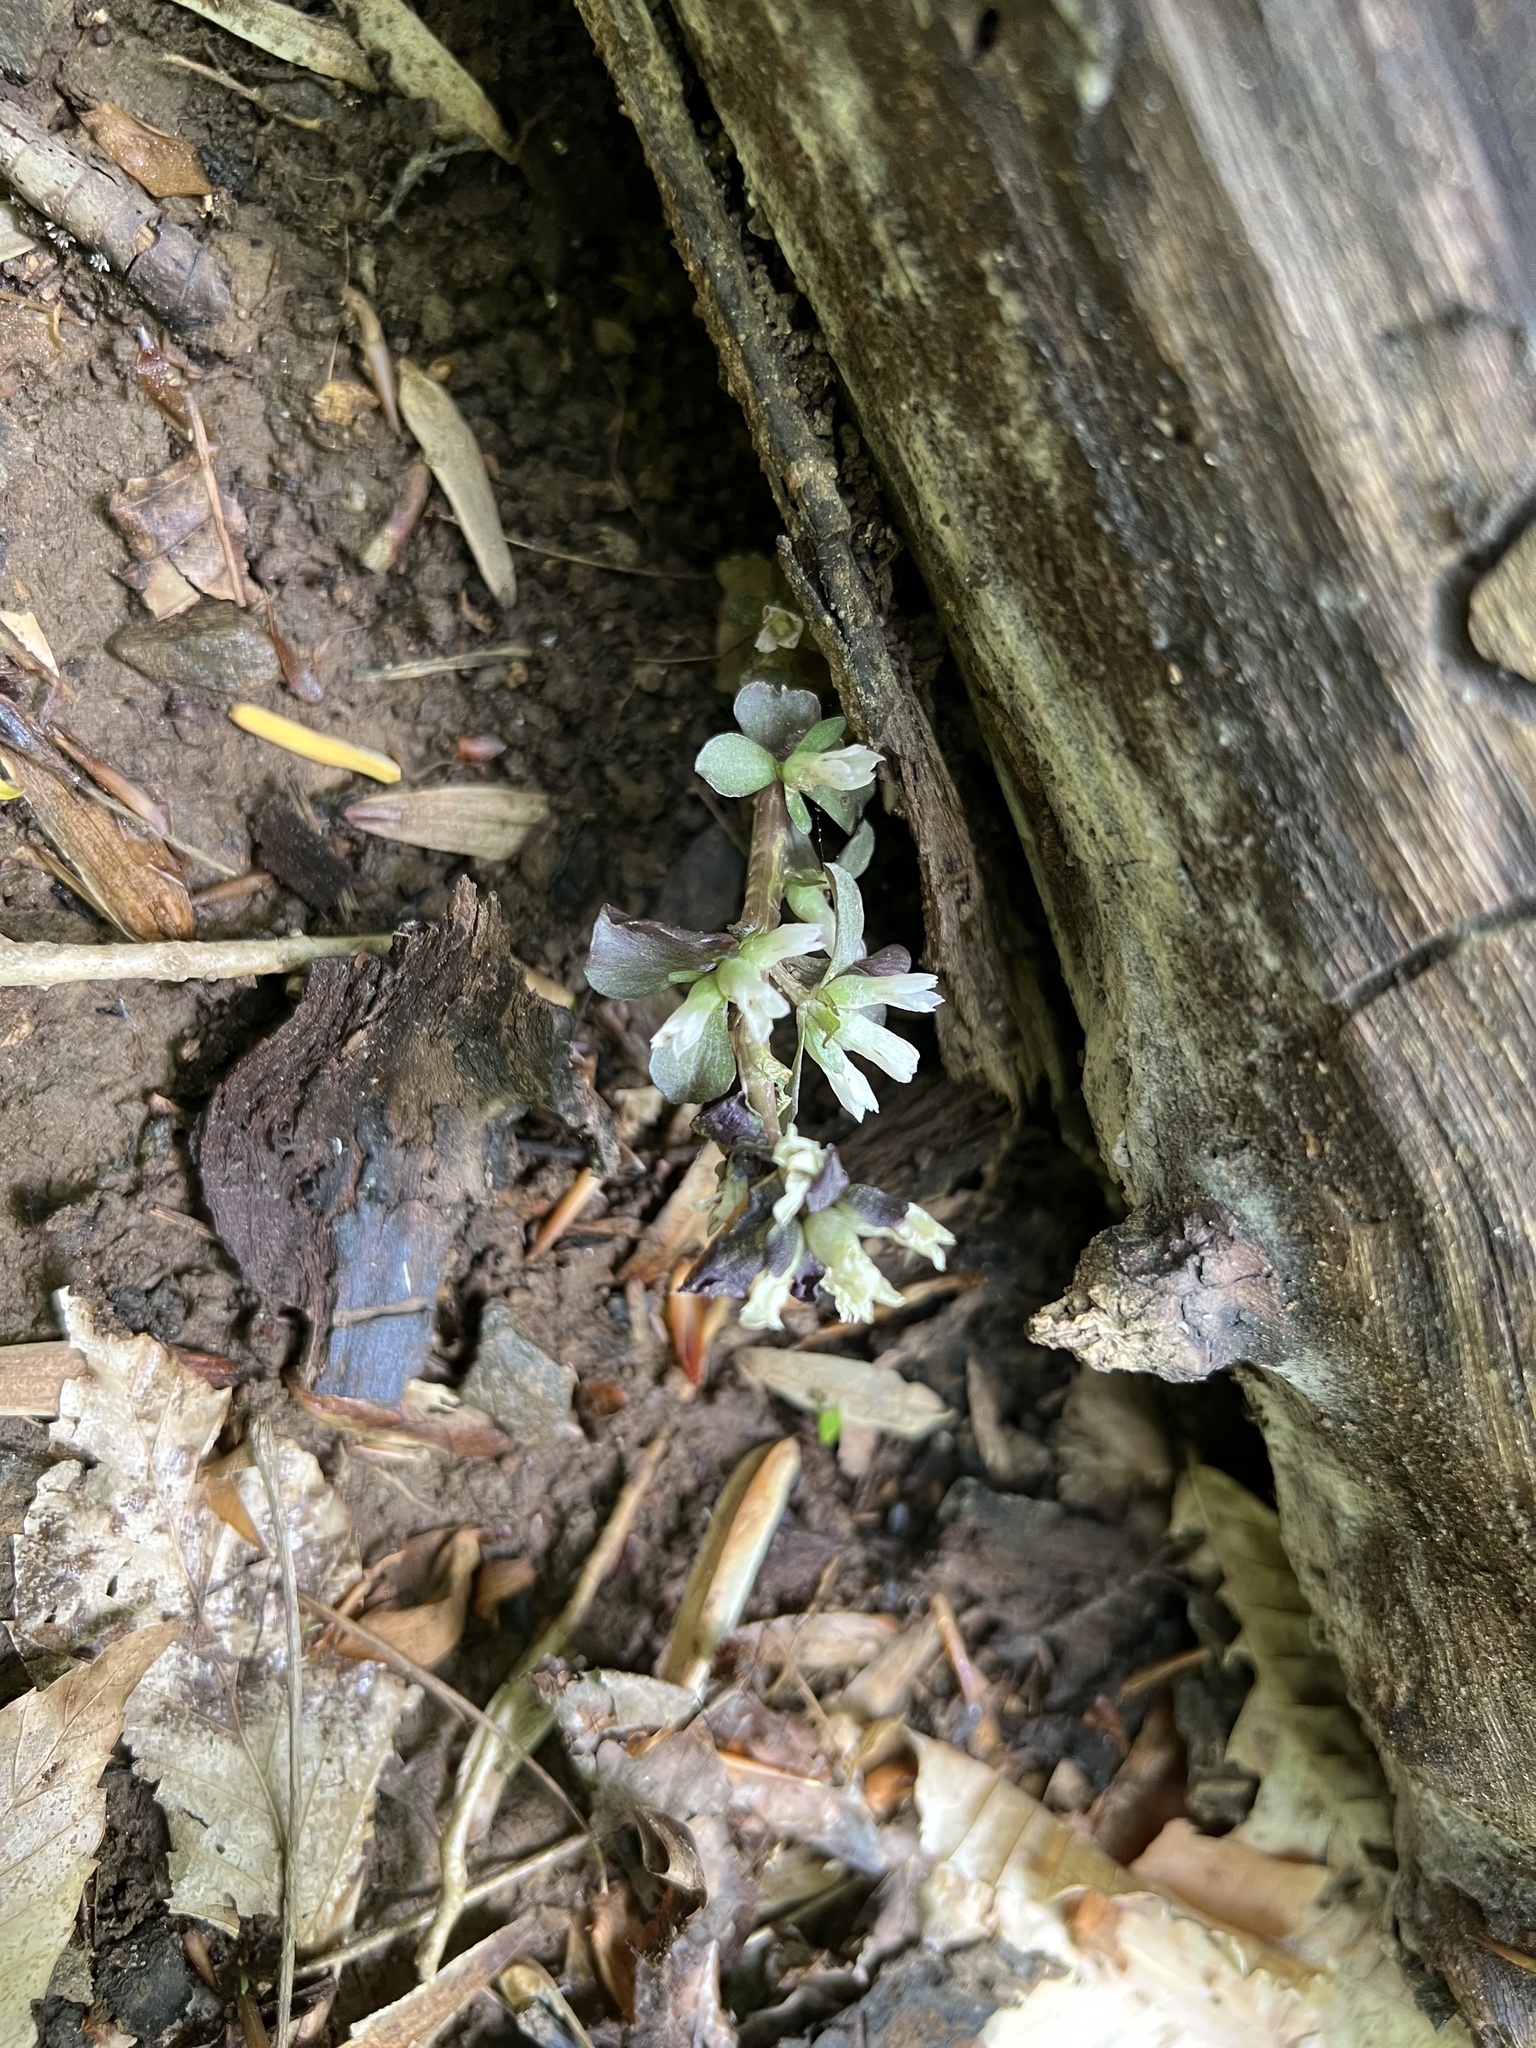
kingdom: Plantae
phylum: Tracheophyta
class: Magnoliopsida
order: Gentianales
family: Gentianaceae
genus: Obolaria
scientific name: Obolaria virginica
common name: Pennywort
